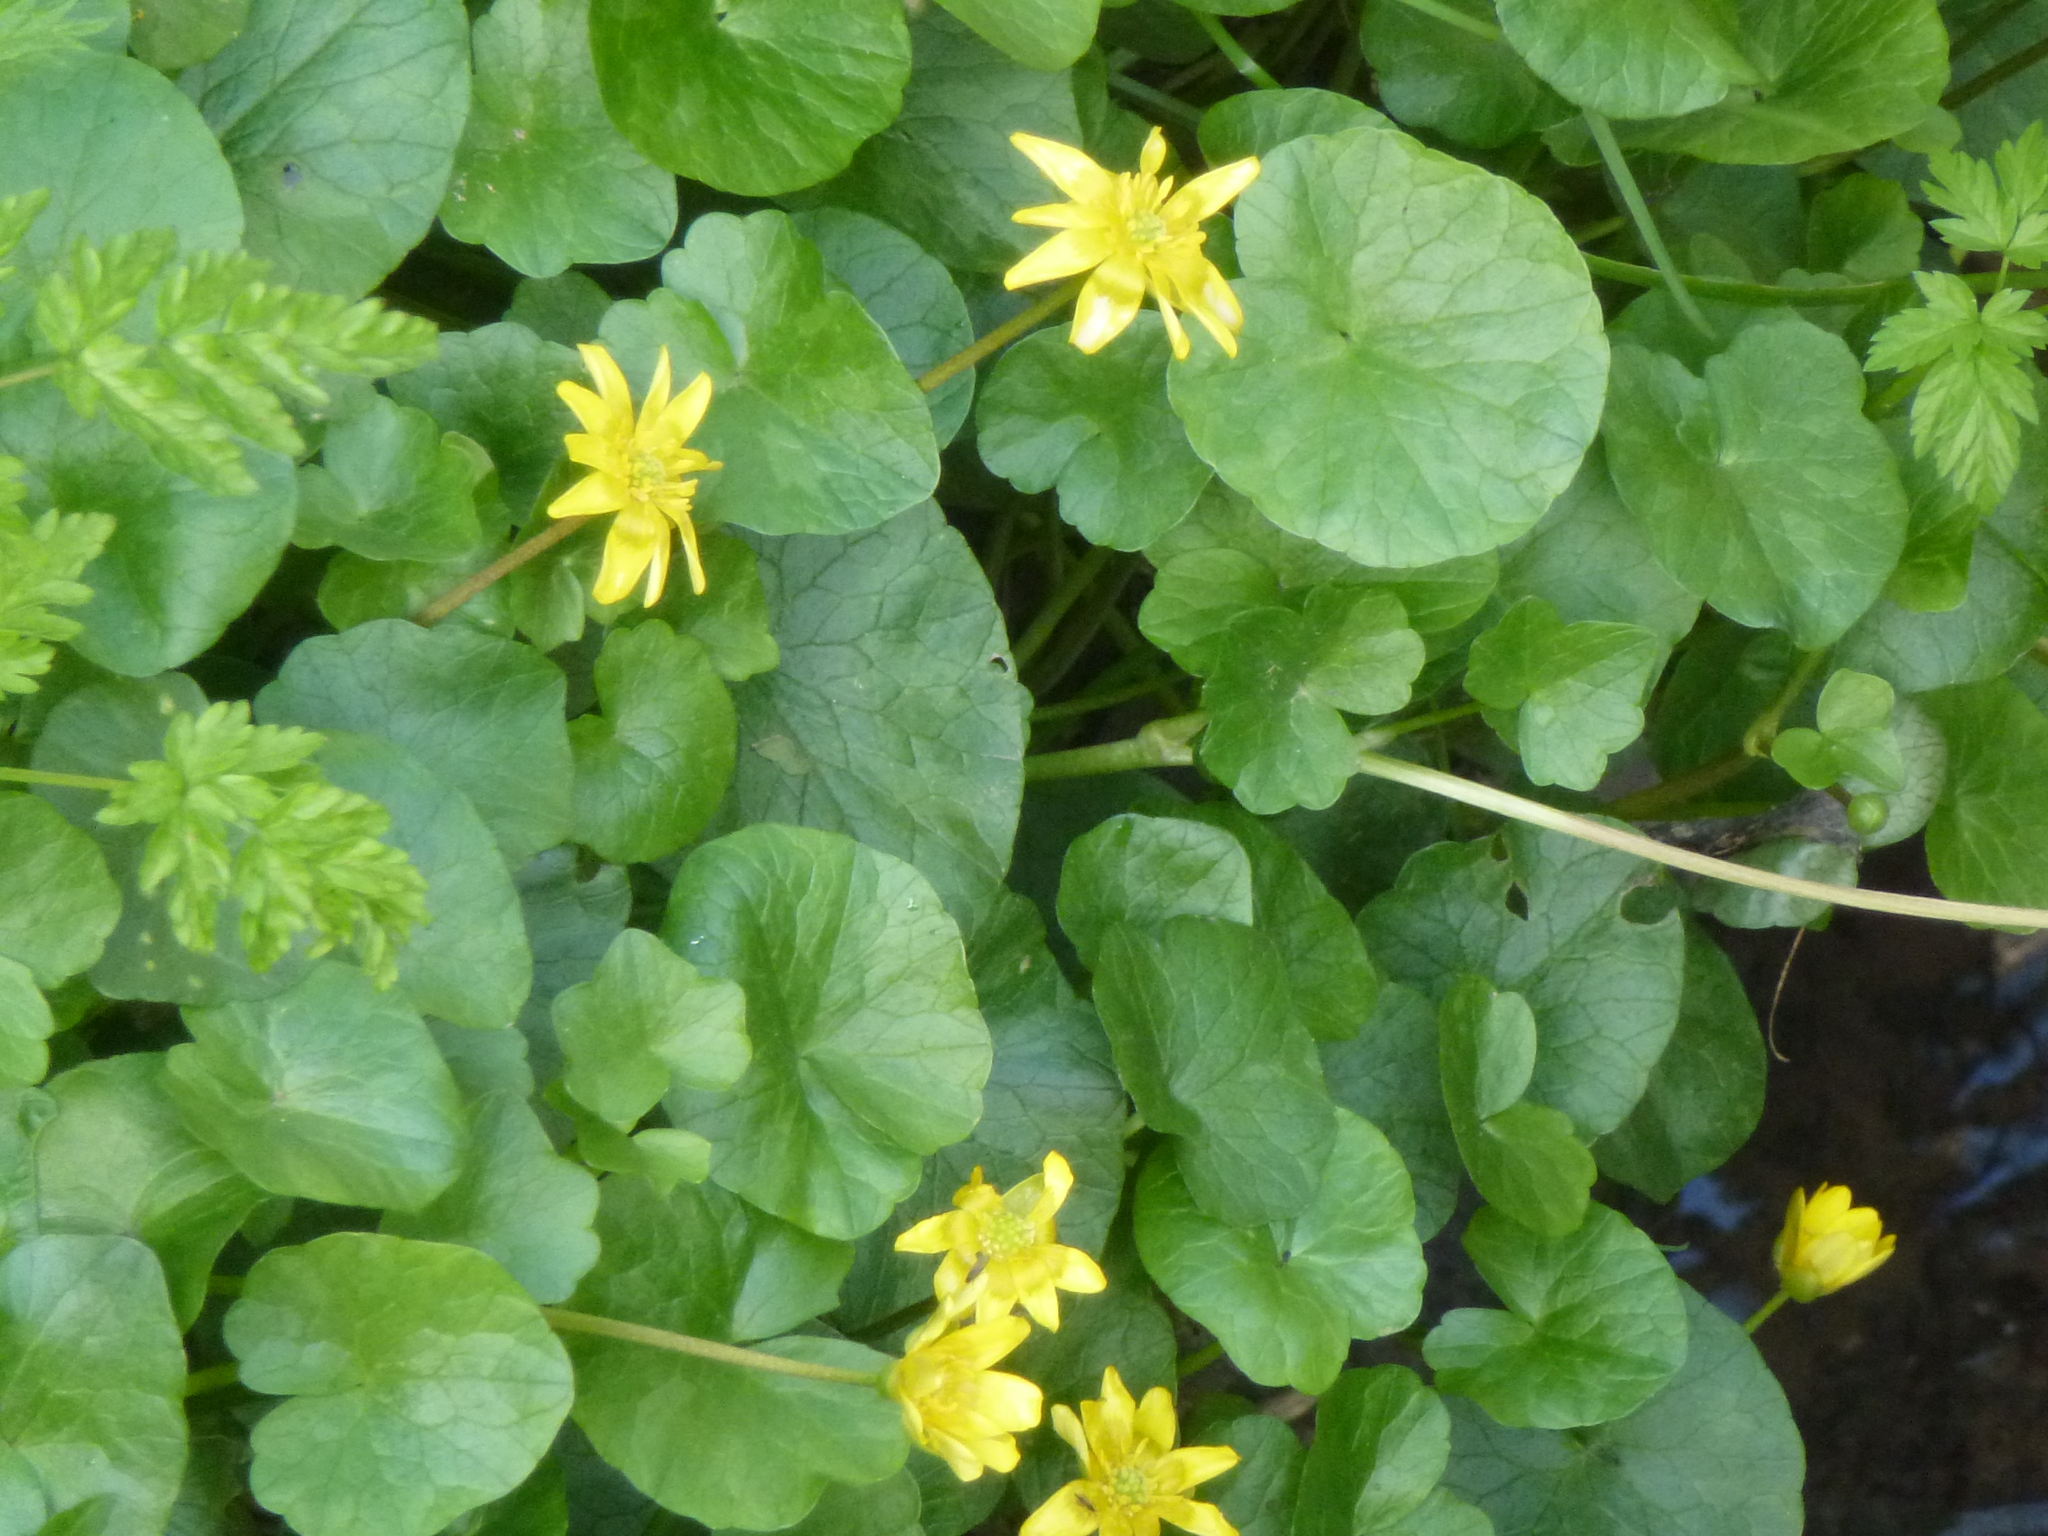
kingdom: Plantae
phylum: Tracheophyta
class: Magnoliopsida
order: Ranunculales
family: Ranunculaceae
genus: Ficaria
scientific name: Ficaria verna
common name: Lesser celandine
